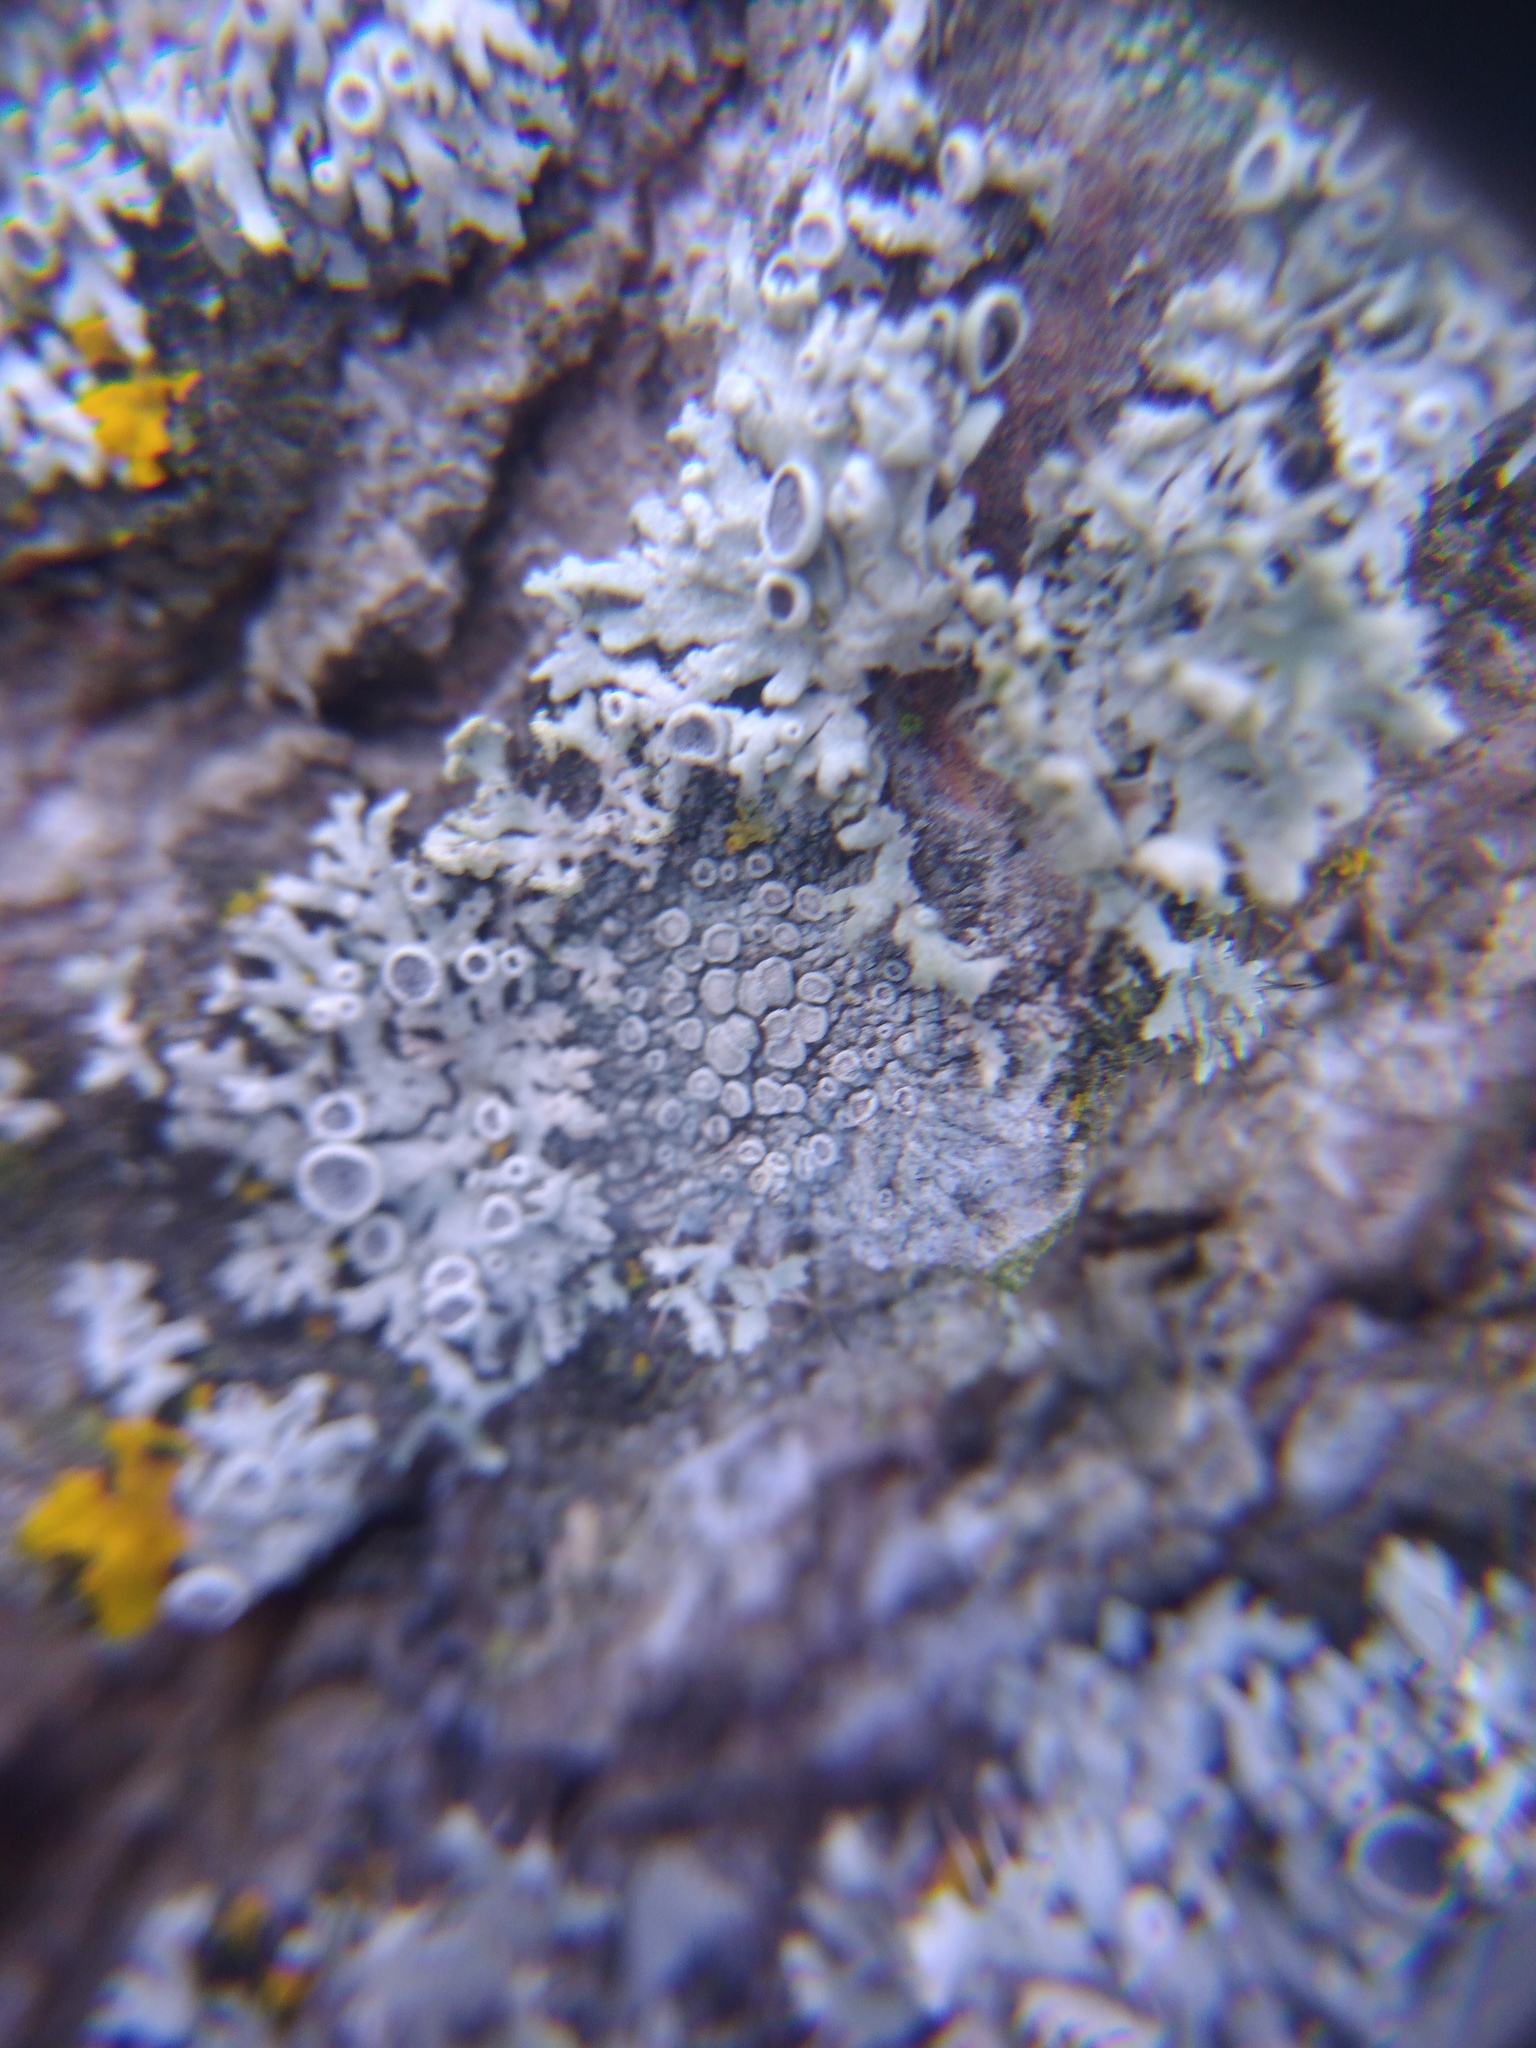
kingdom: Fungi
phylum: Ascomycota
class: Lecanoromycetes
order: Lecanorales
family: Lecanoraceae
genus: Glaucomaria
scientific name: Glaucomaria carpinea
